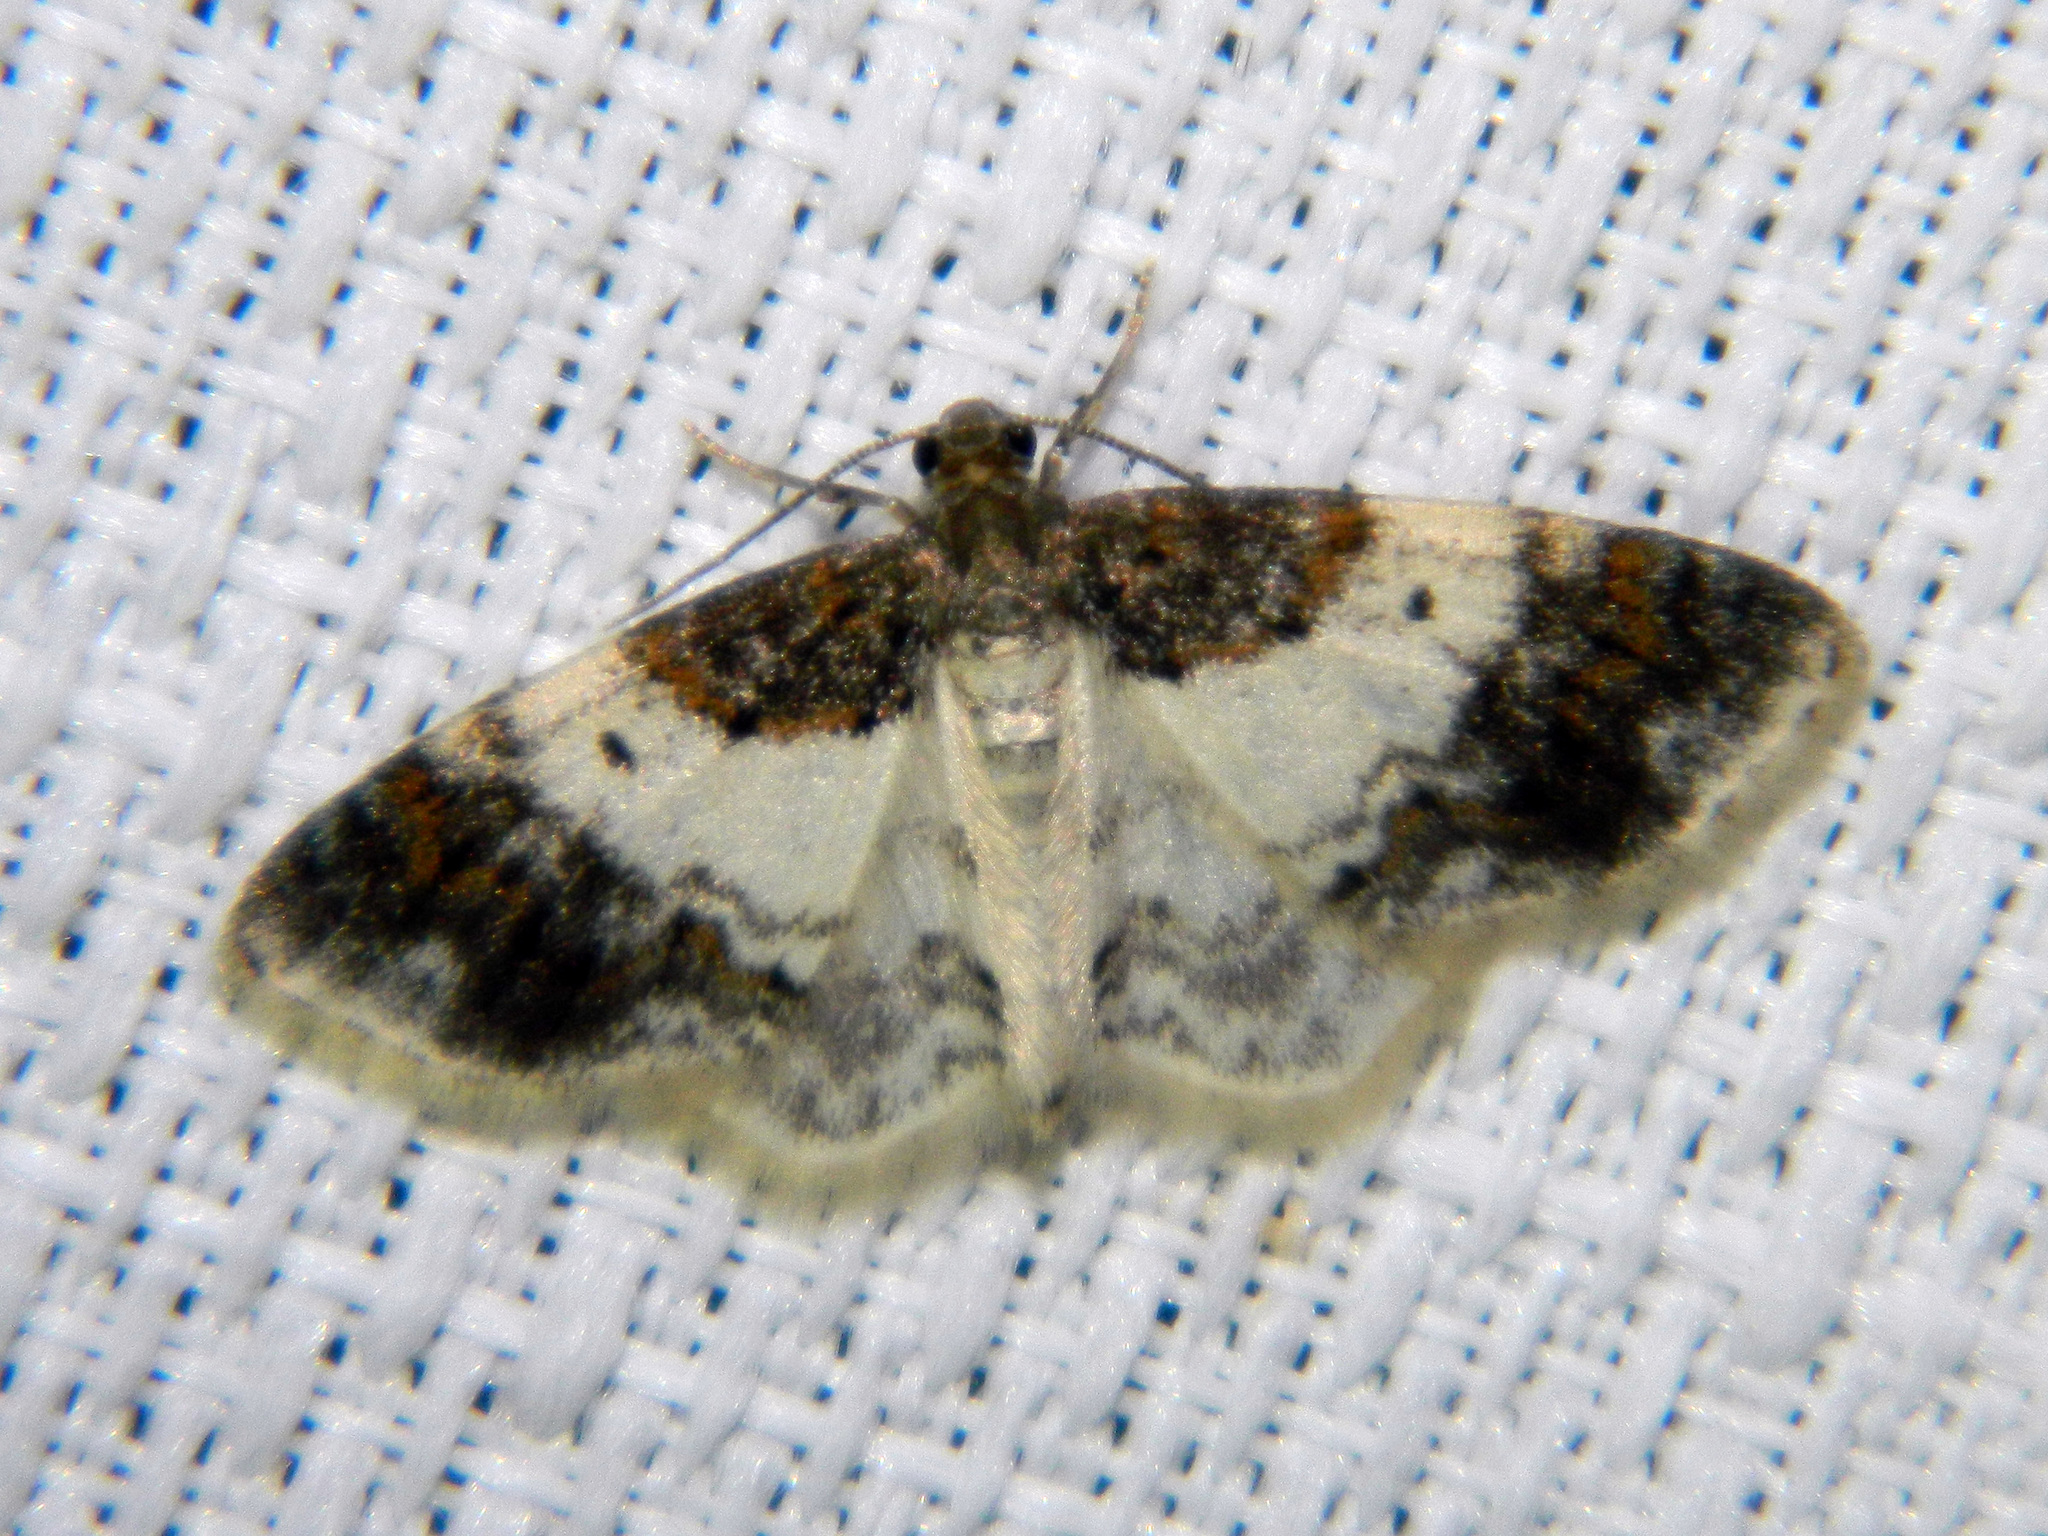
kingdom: Animalia
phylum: Arthropoda
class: Insecta
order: Lepidoptera
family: Geometridae
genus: Hydrelia
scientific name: Hydrelia condensata
